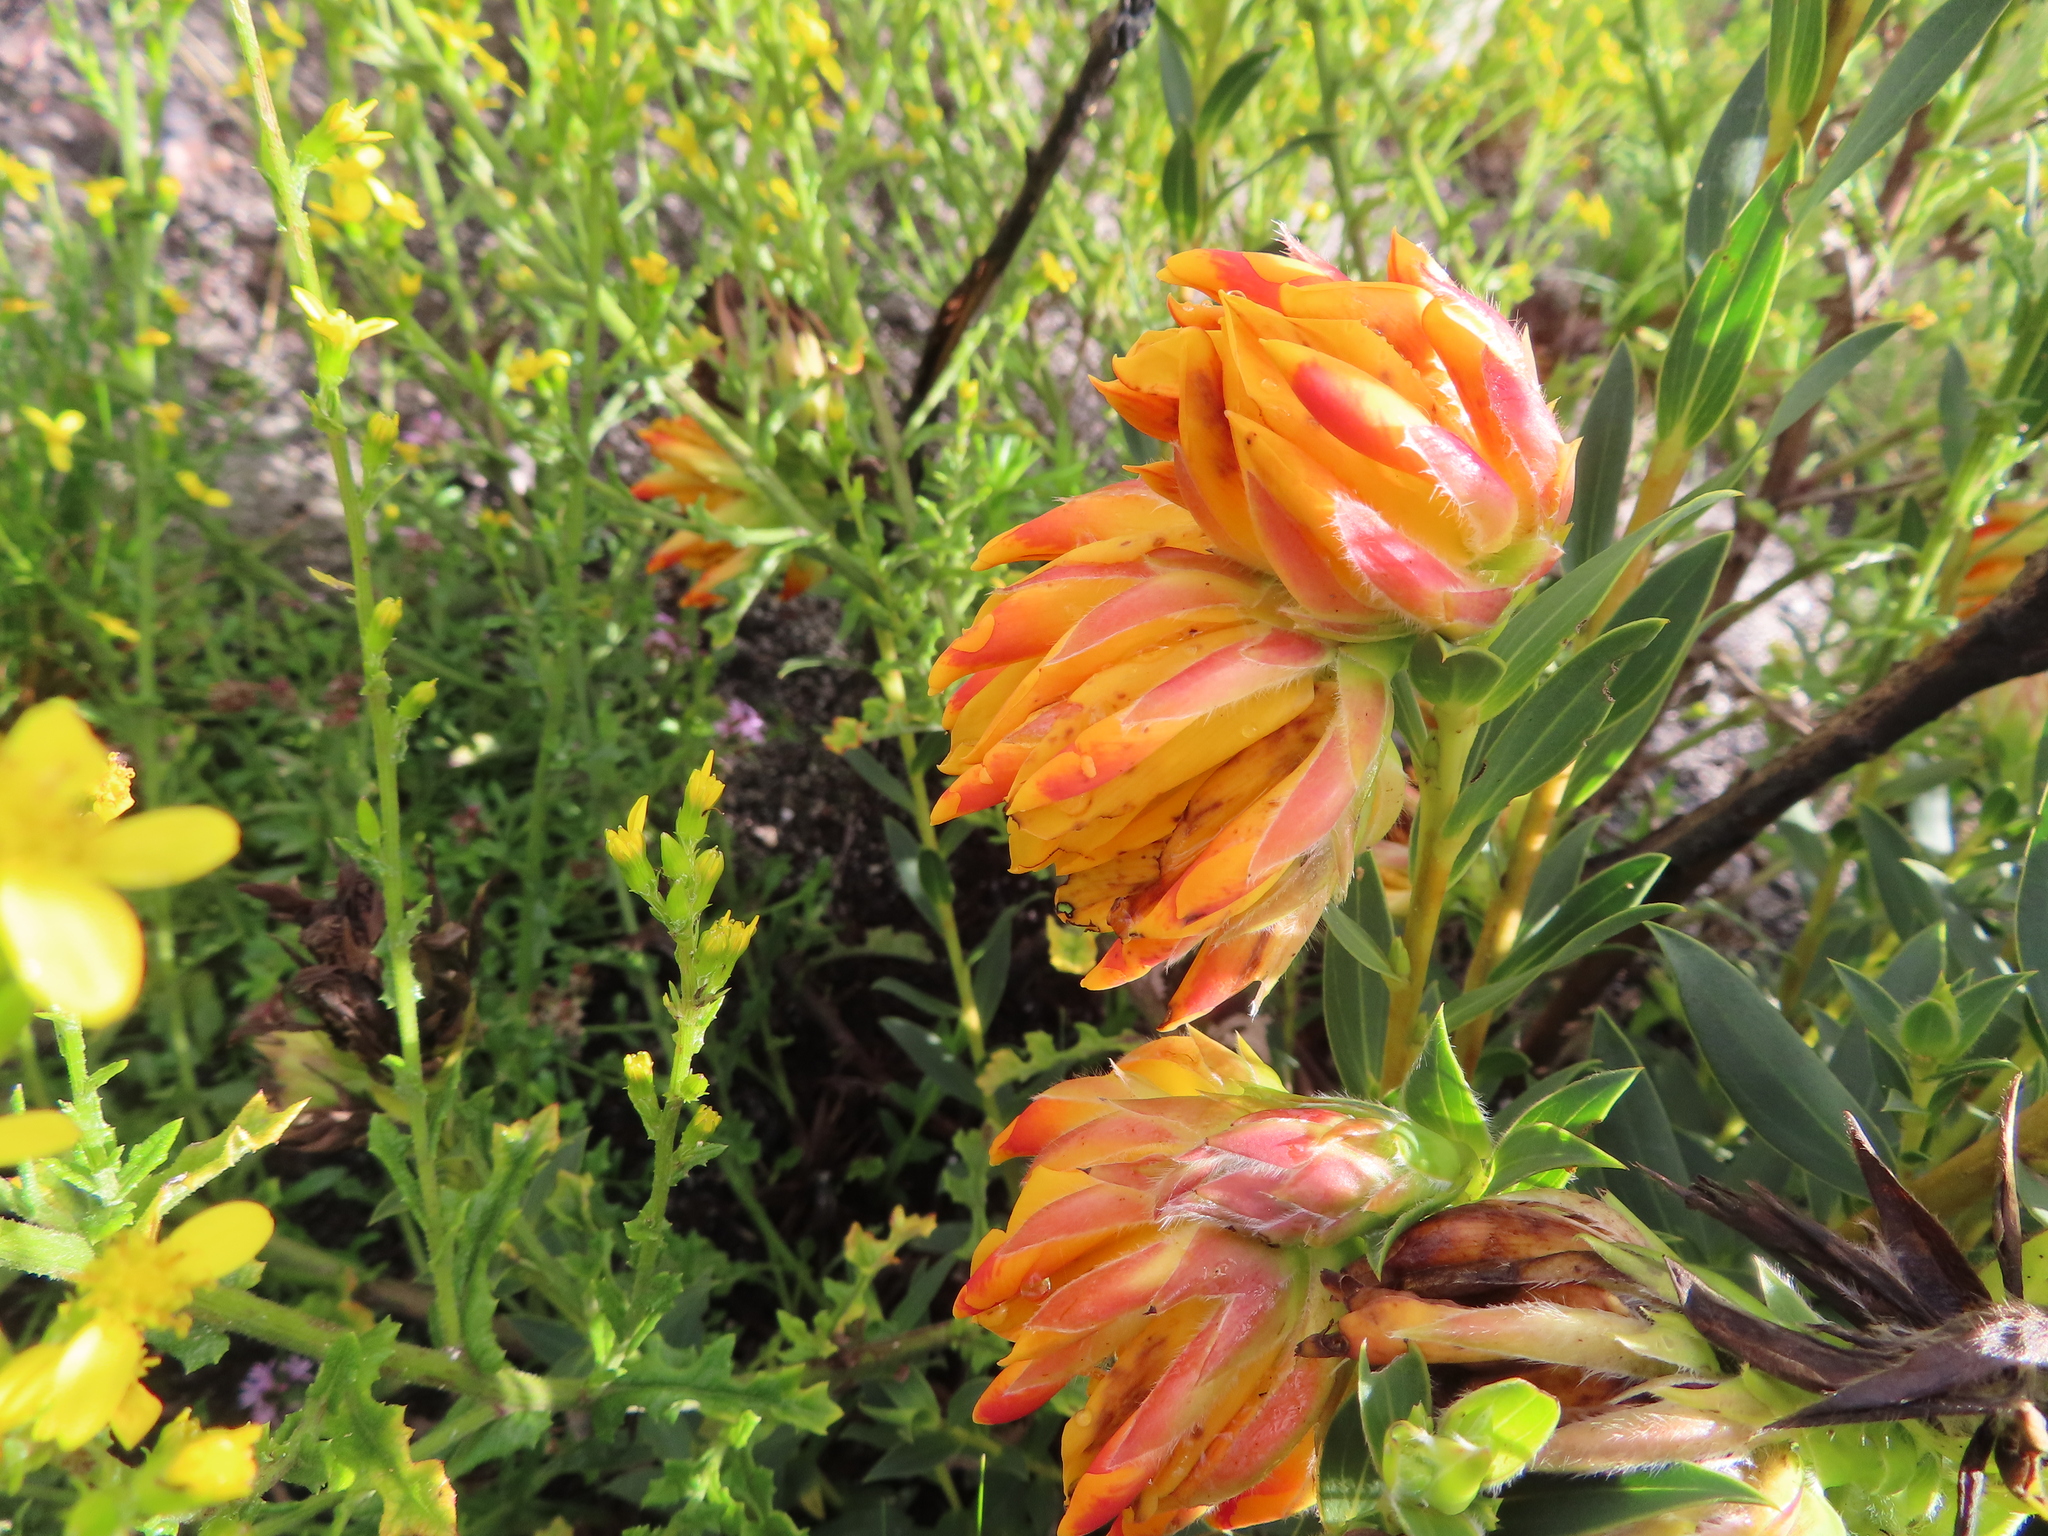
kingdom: Plantae
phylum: Tracheophyta
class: Magnoliopsida
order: Fabales
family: Fabaceae
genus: Liparia
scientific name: Liparia splendens
